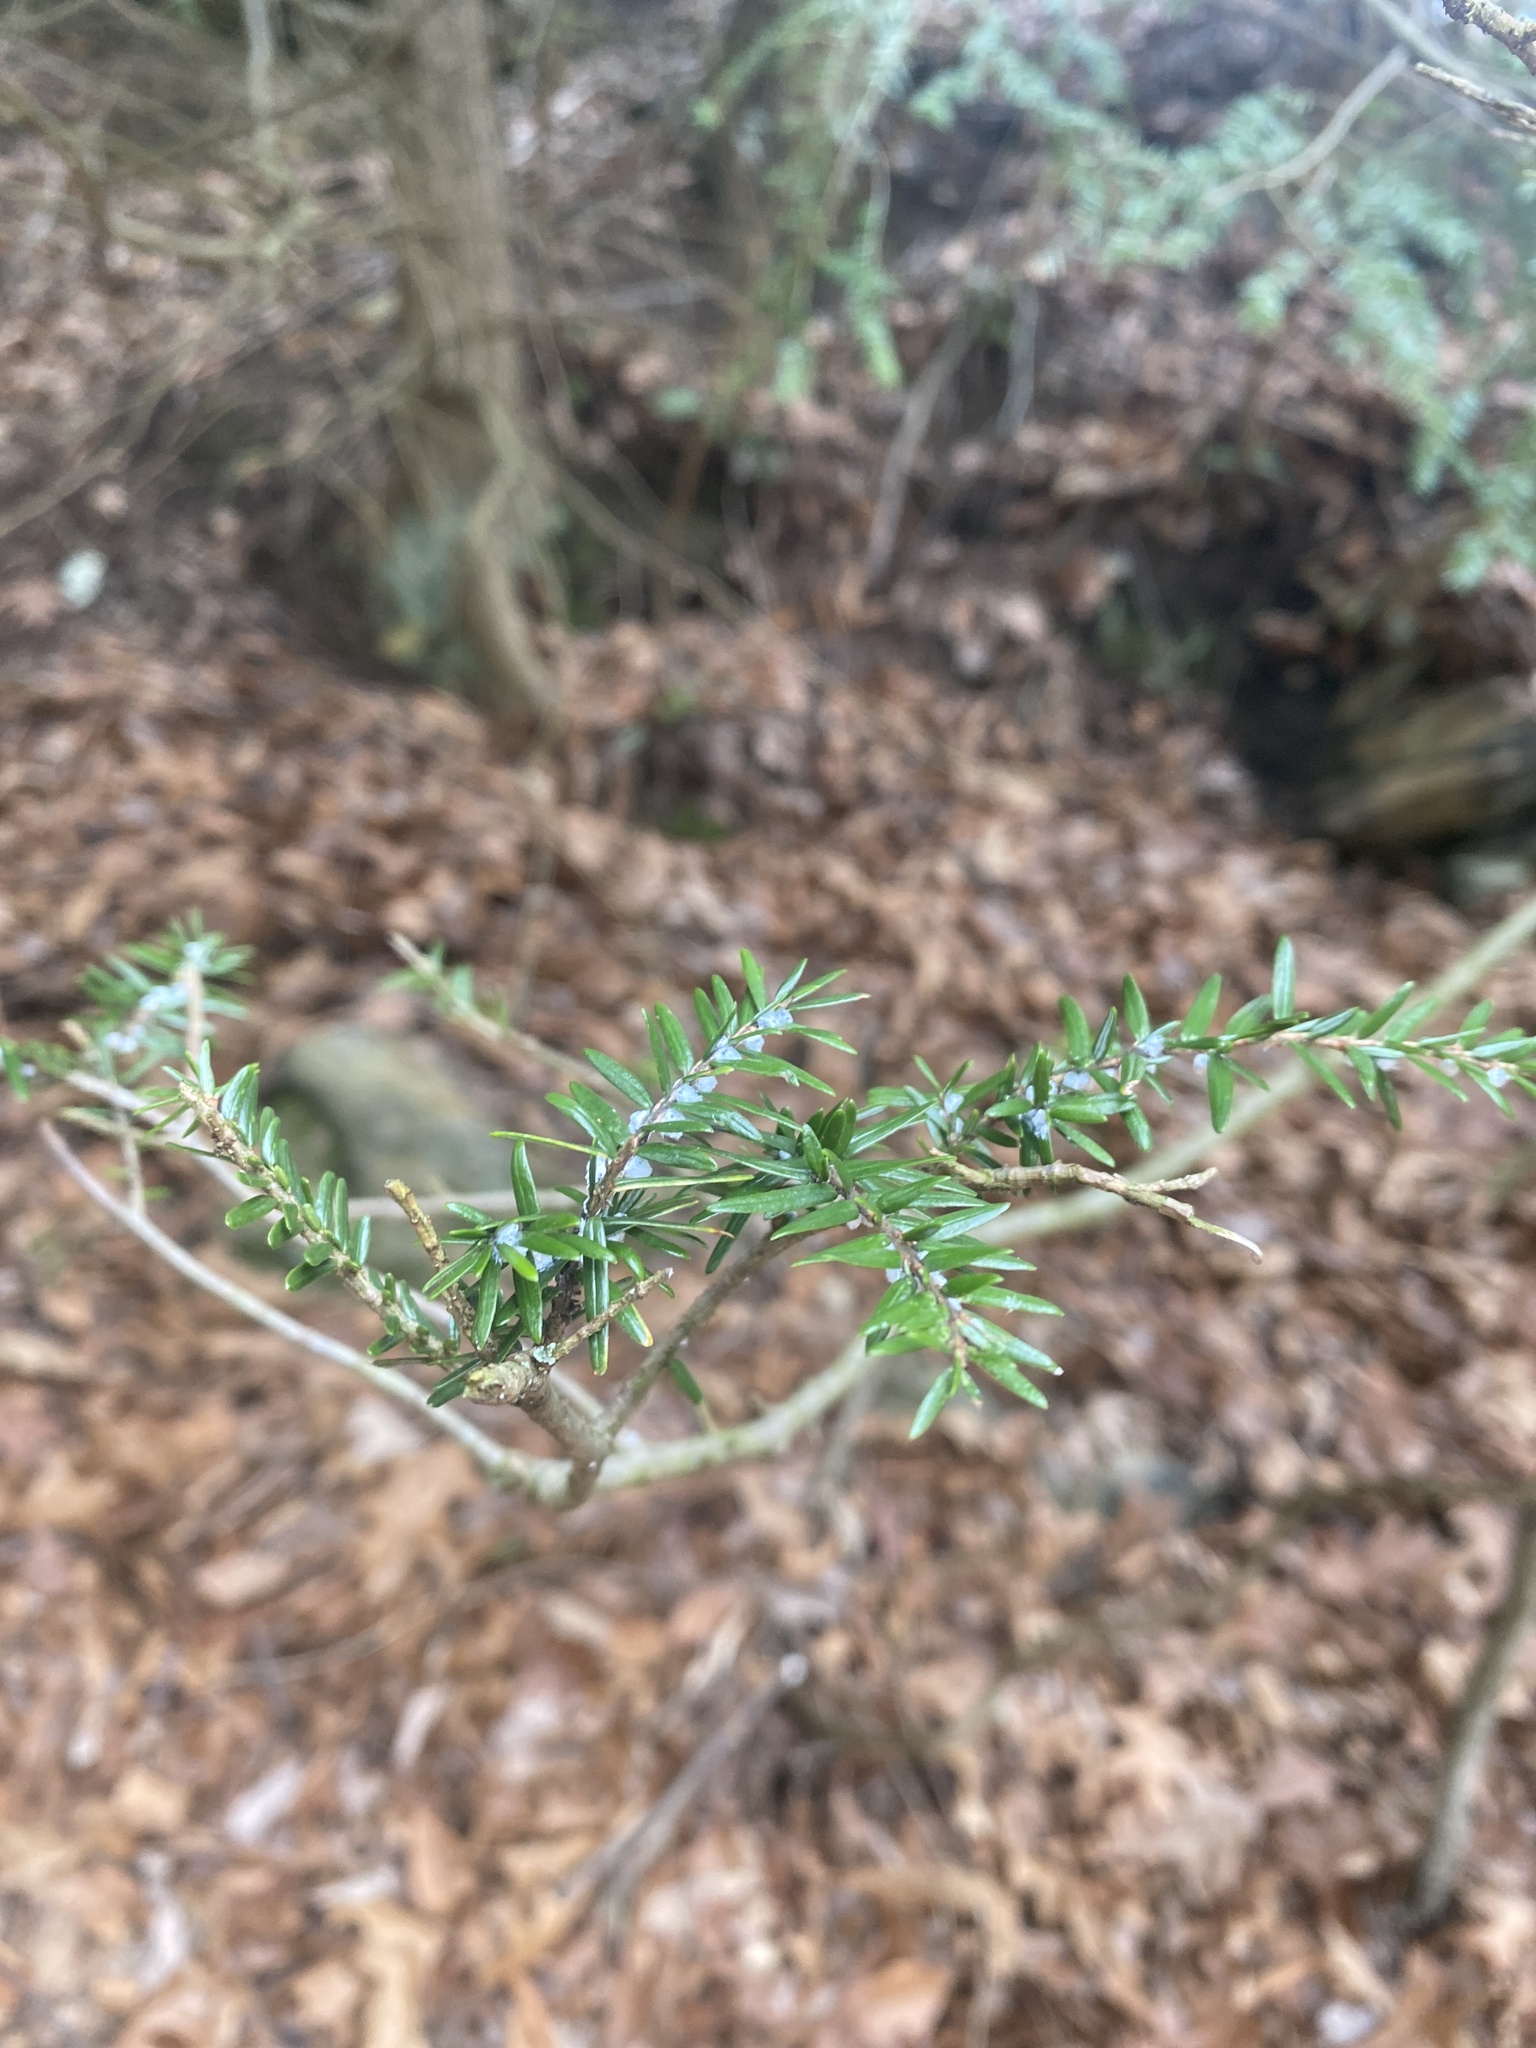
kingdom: Animalia
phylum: Arthropoda
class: Insecta
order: Hemiptera
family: Adelgidae
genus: Adelges
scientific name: Adelges tsugae
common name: Hemlock woolly adelgid
